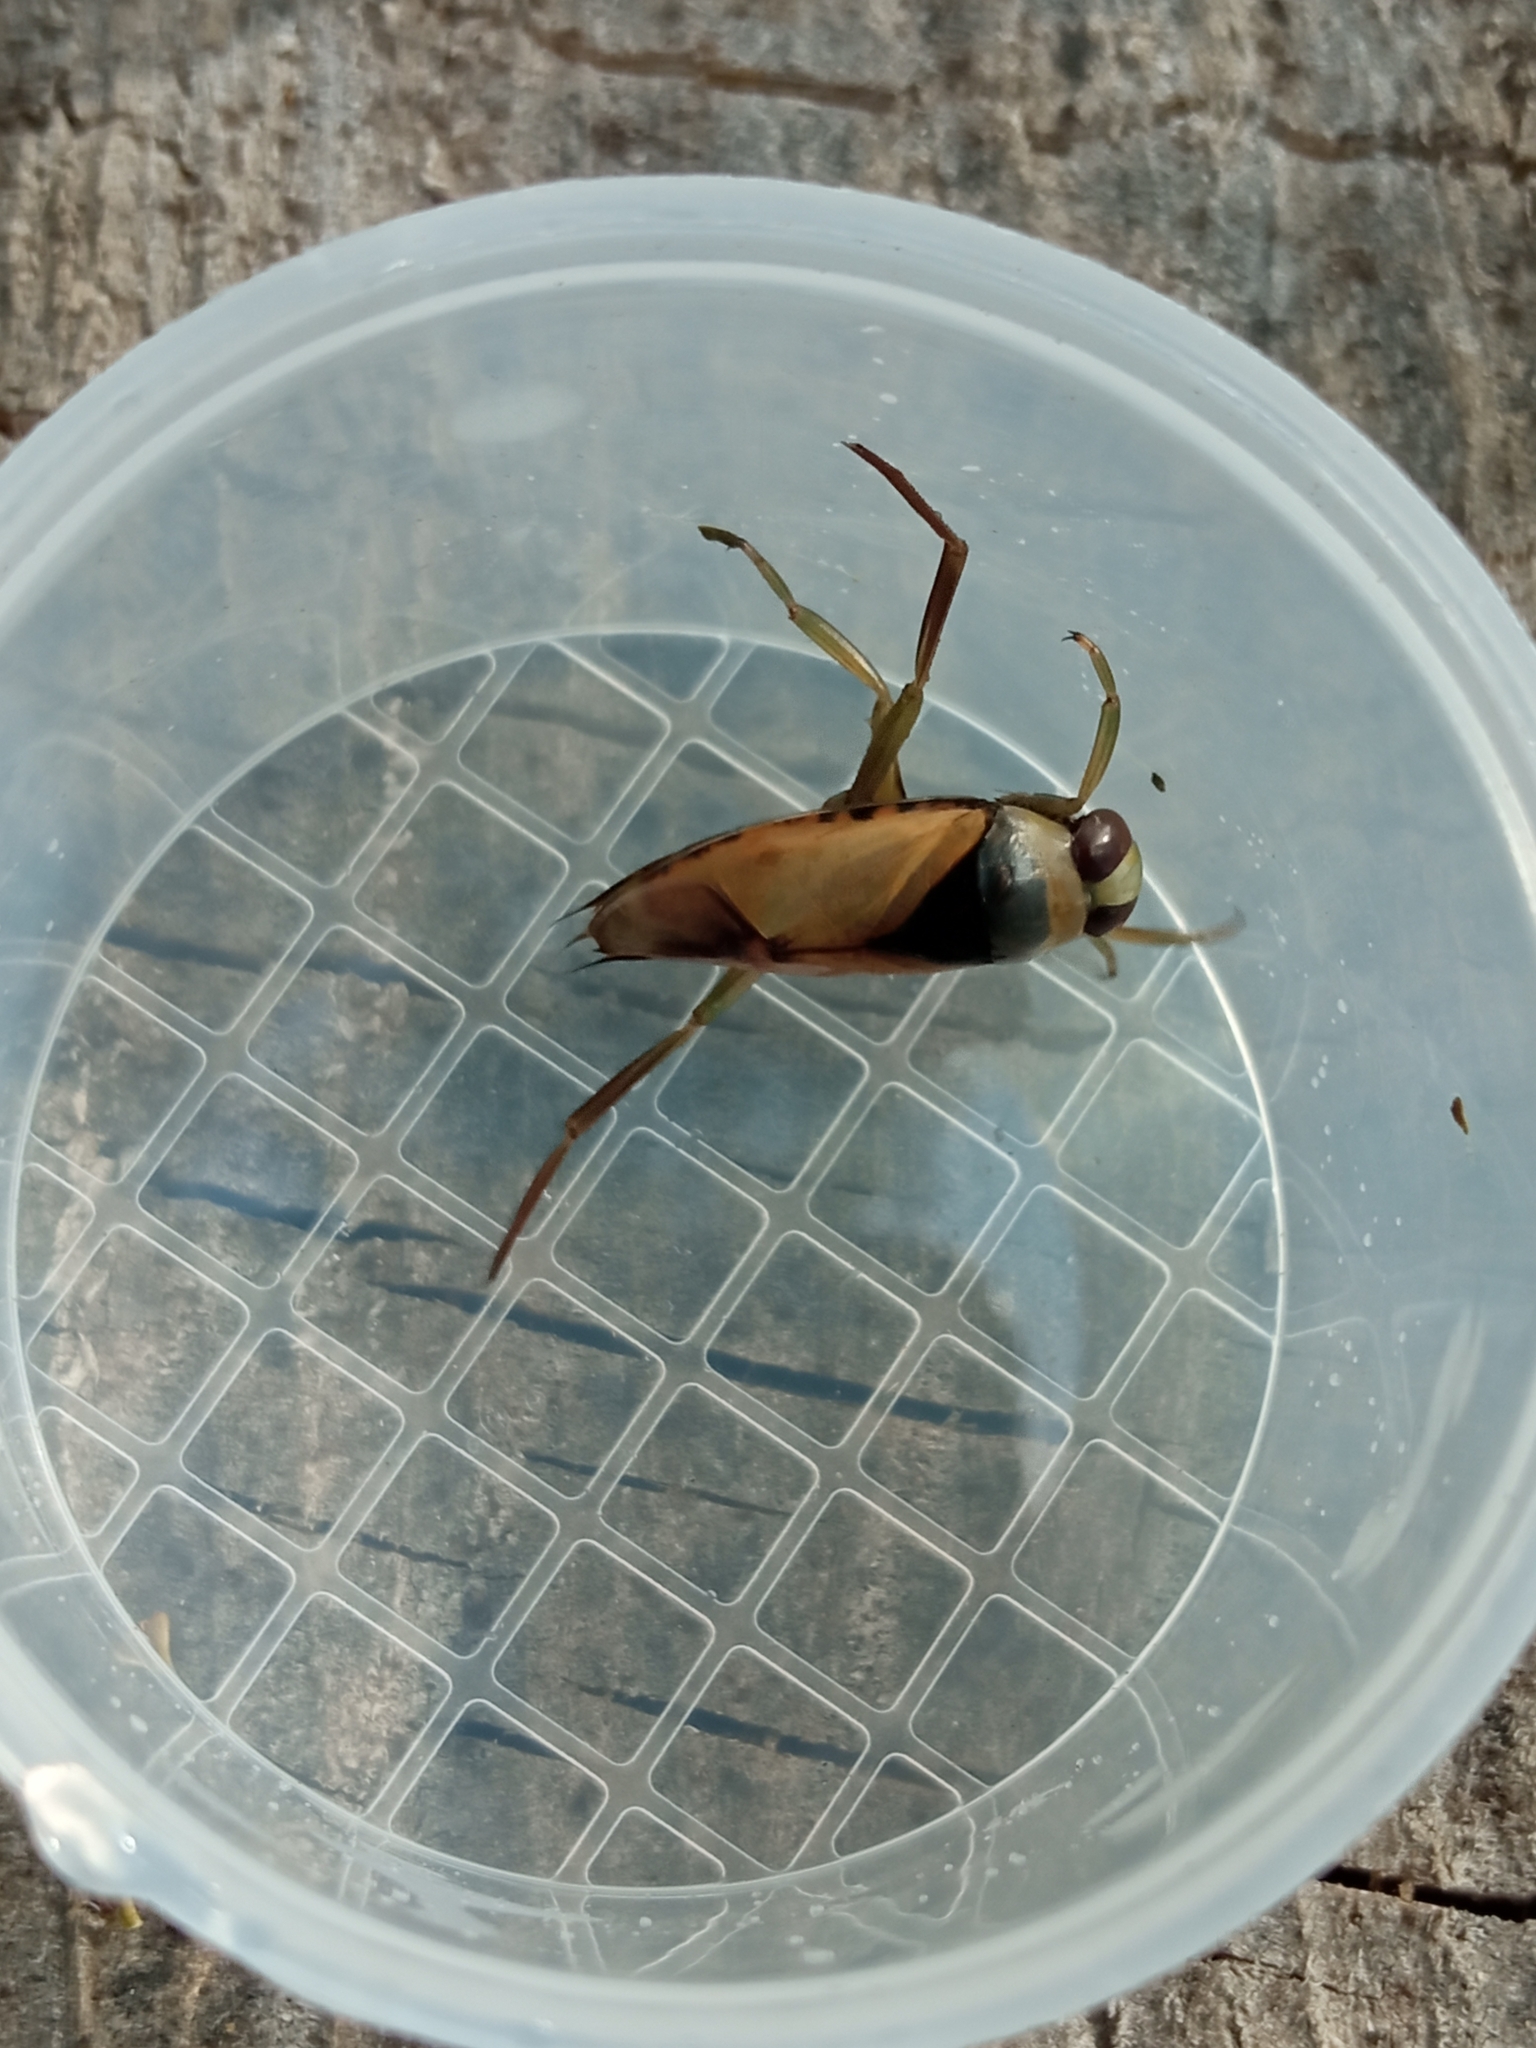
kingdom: Animalia
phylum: Arthropoda
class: Insecta
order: Hemiptera
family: Notonectidae
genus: Notonecta
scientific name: Notonecta glauca
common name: Common water-boatman
